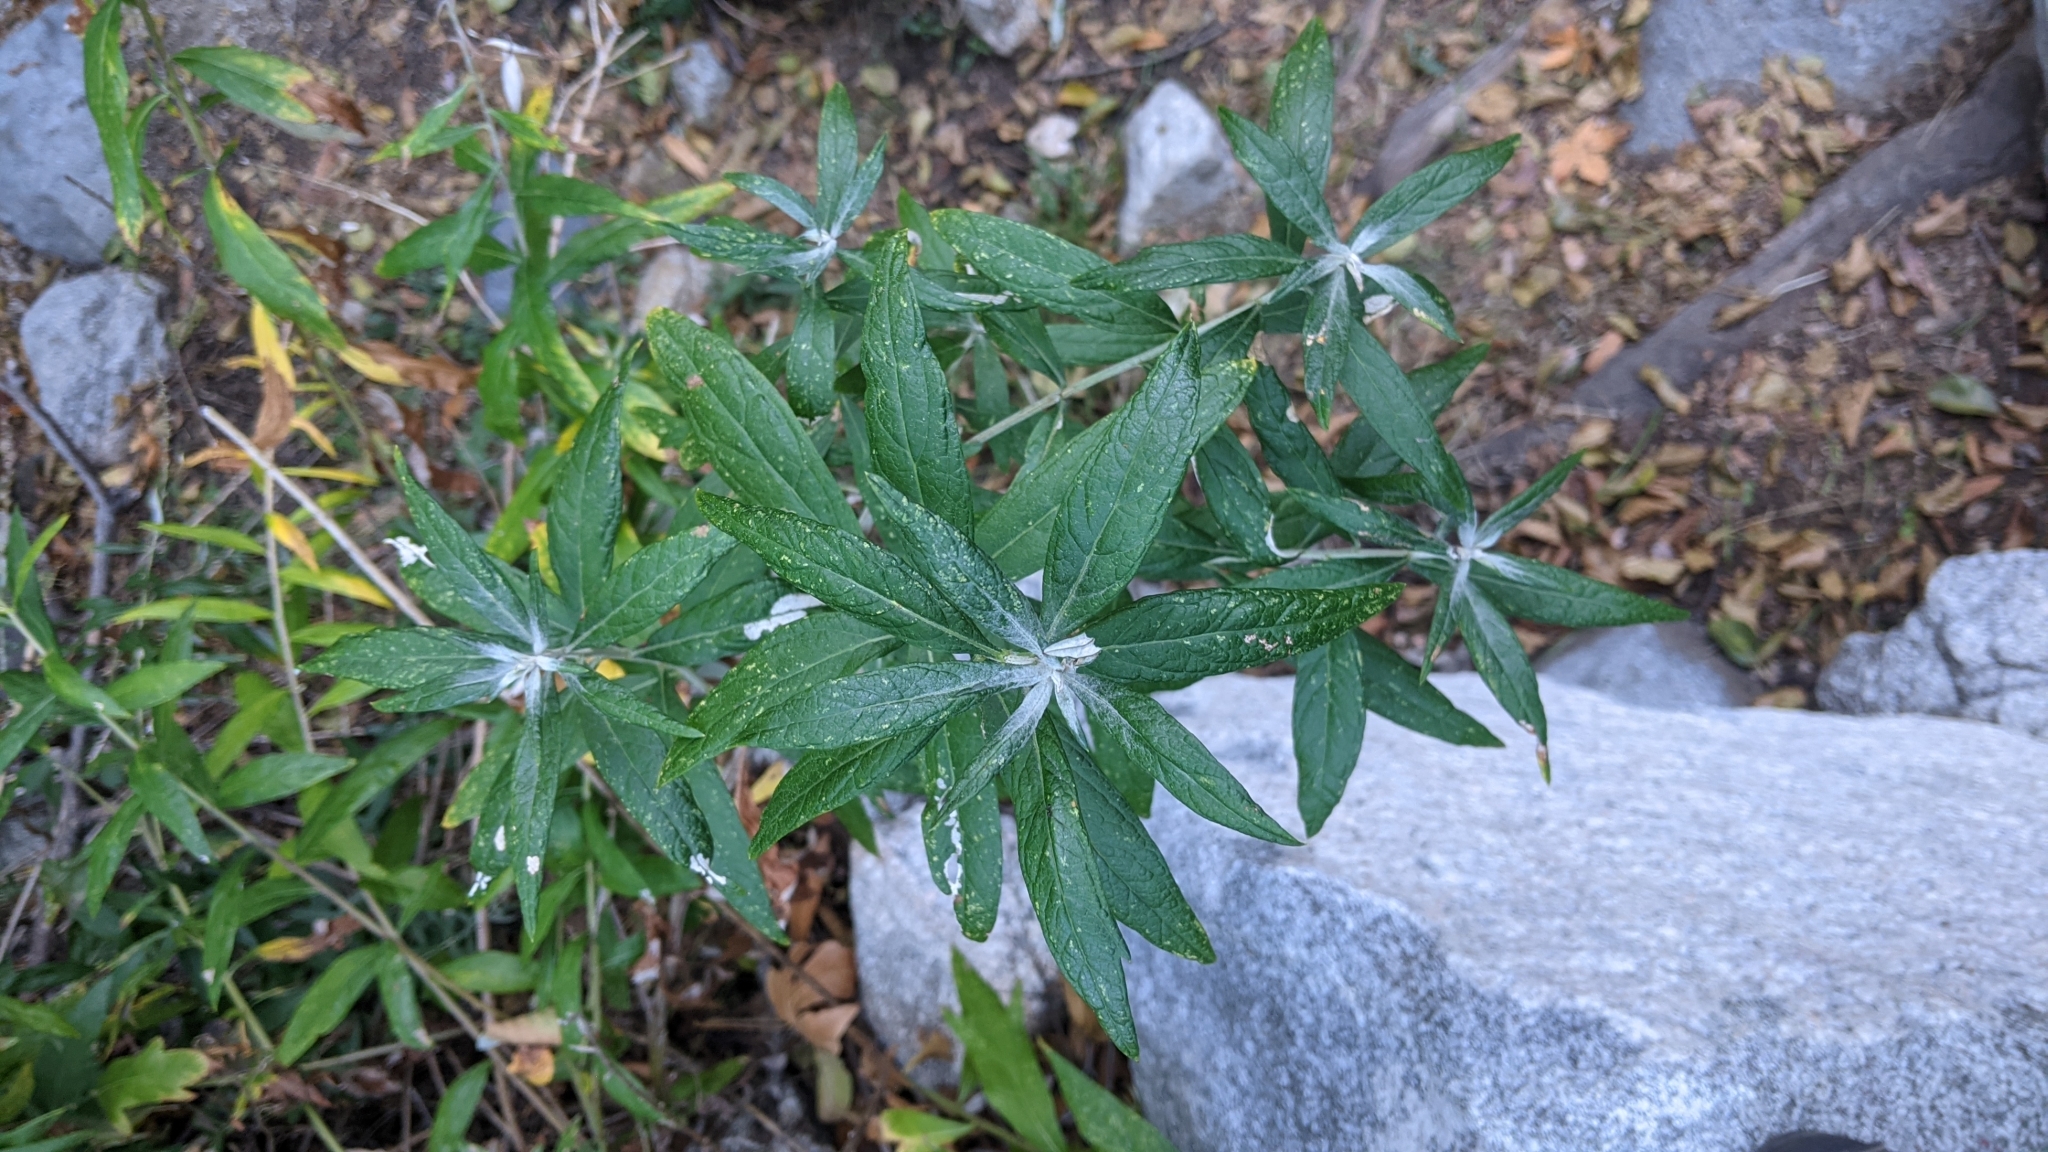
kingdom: Plantae
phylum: Tracheophyta
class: Magnoliopsida
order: Asterales
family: Asteraceae
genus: Artemisia
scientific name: Artemisia douglasiana
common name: Northwest mugwort
